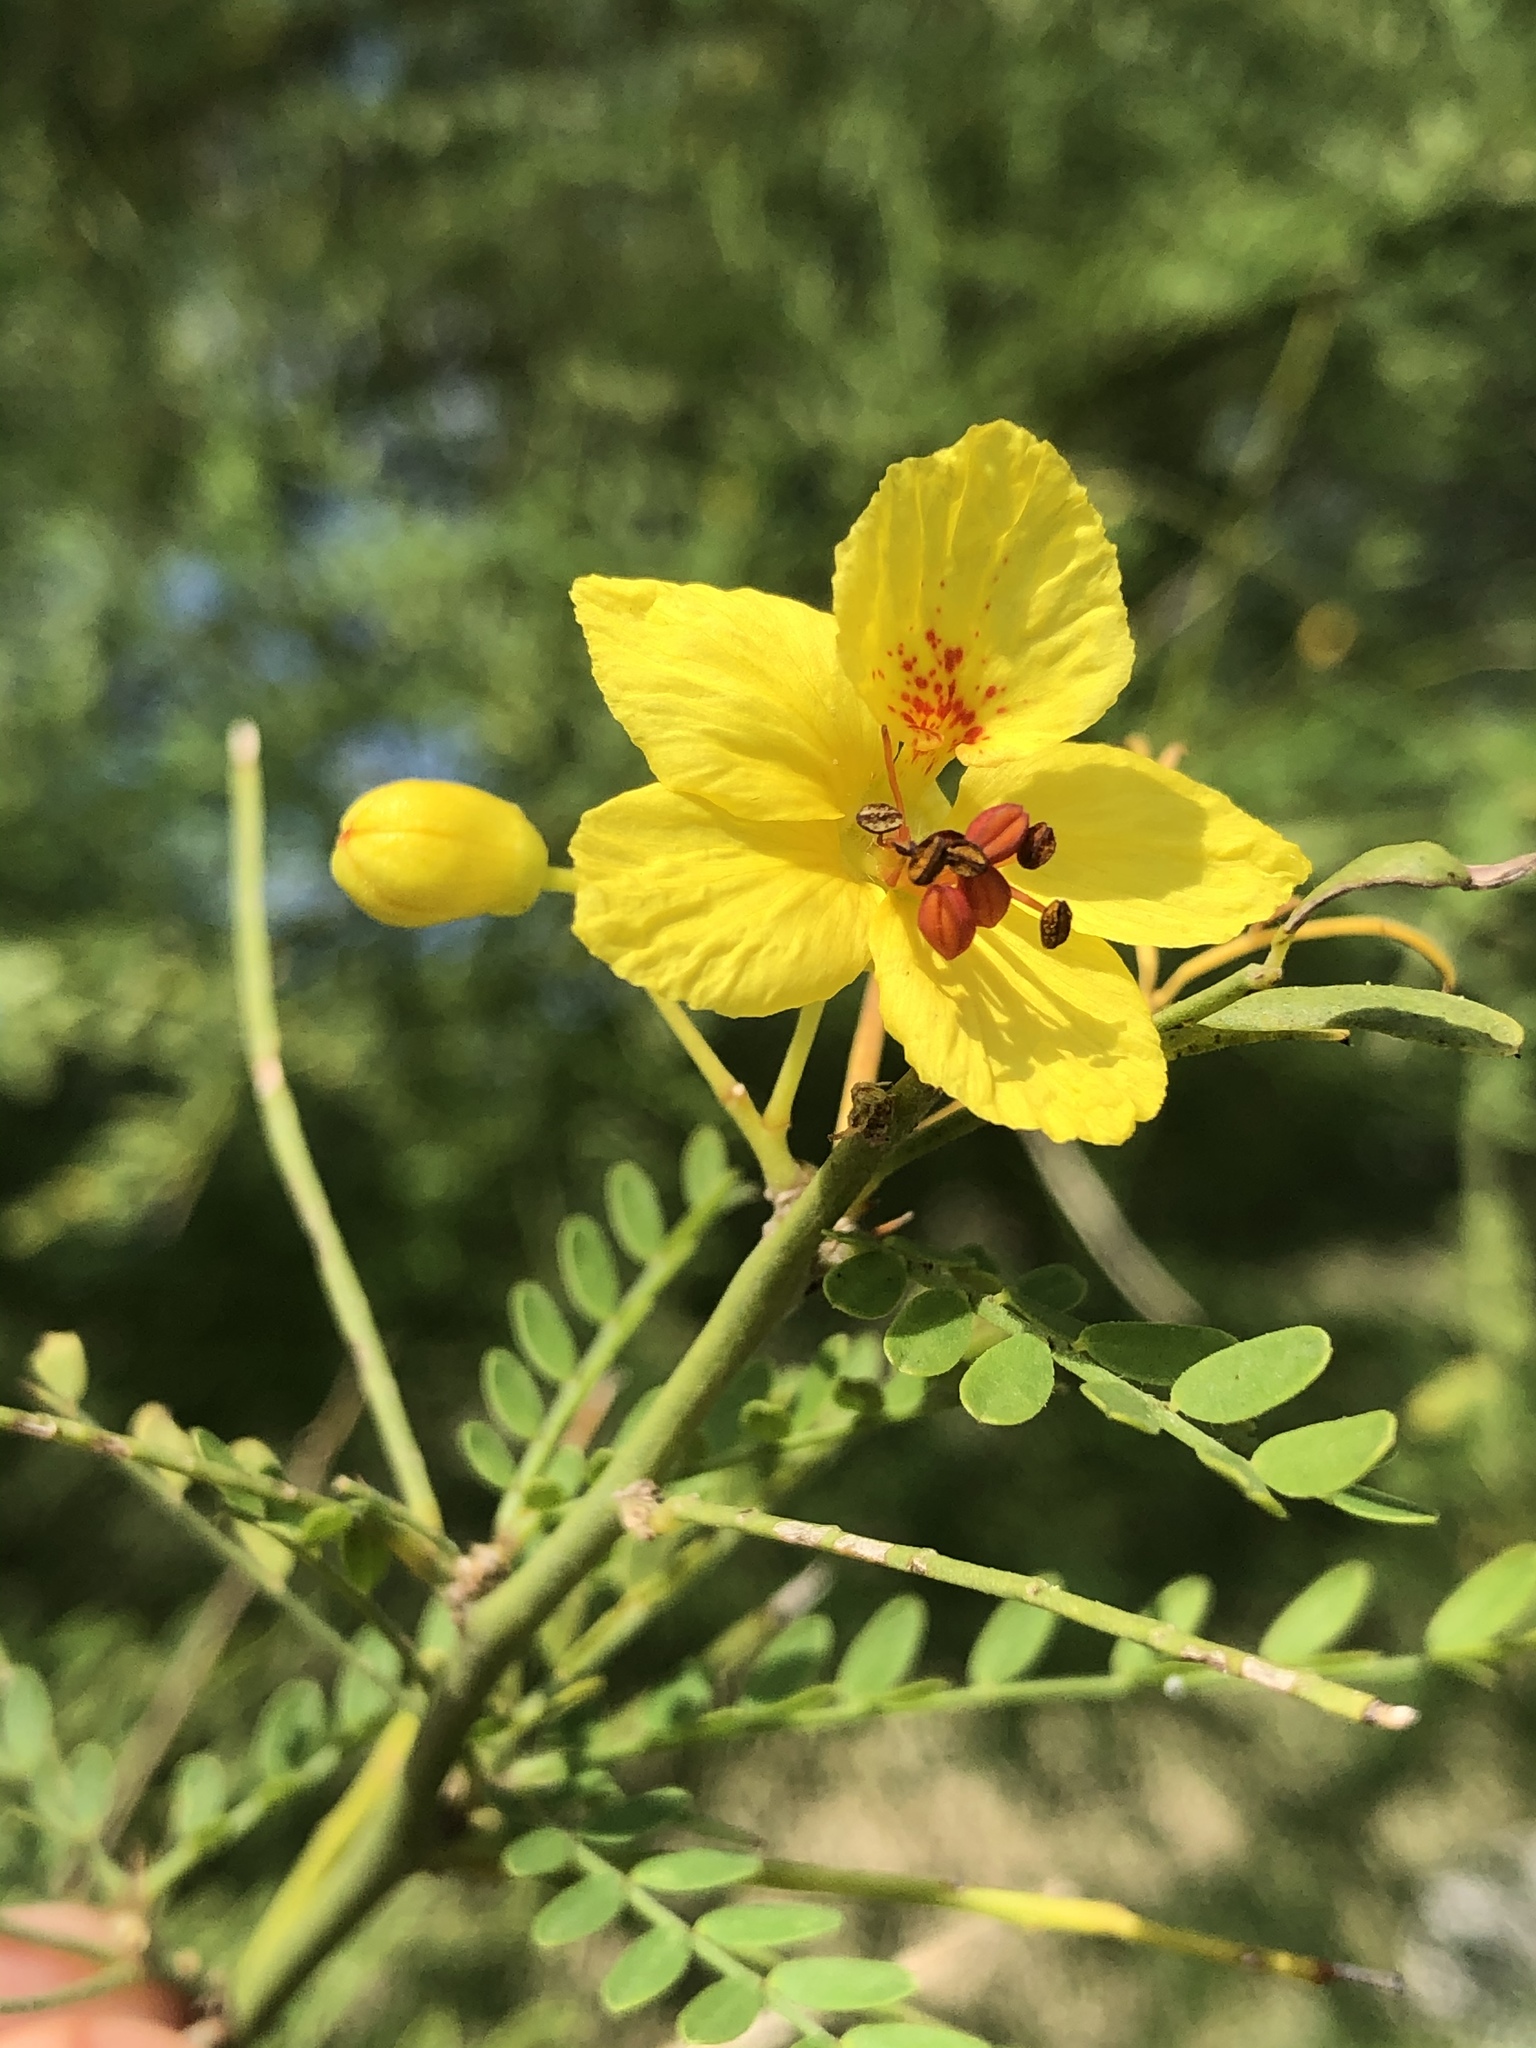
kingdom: Plantae
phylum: Tracheophyta
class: Magnoliopsida
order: Fabales
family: Fabaceae
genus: Parkinsonia
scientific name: Parkinsonia aculeata
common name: Jerusalem thorn
